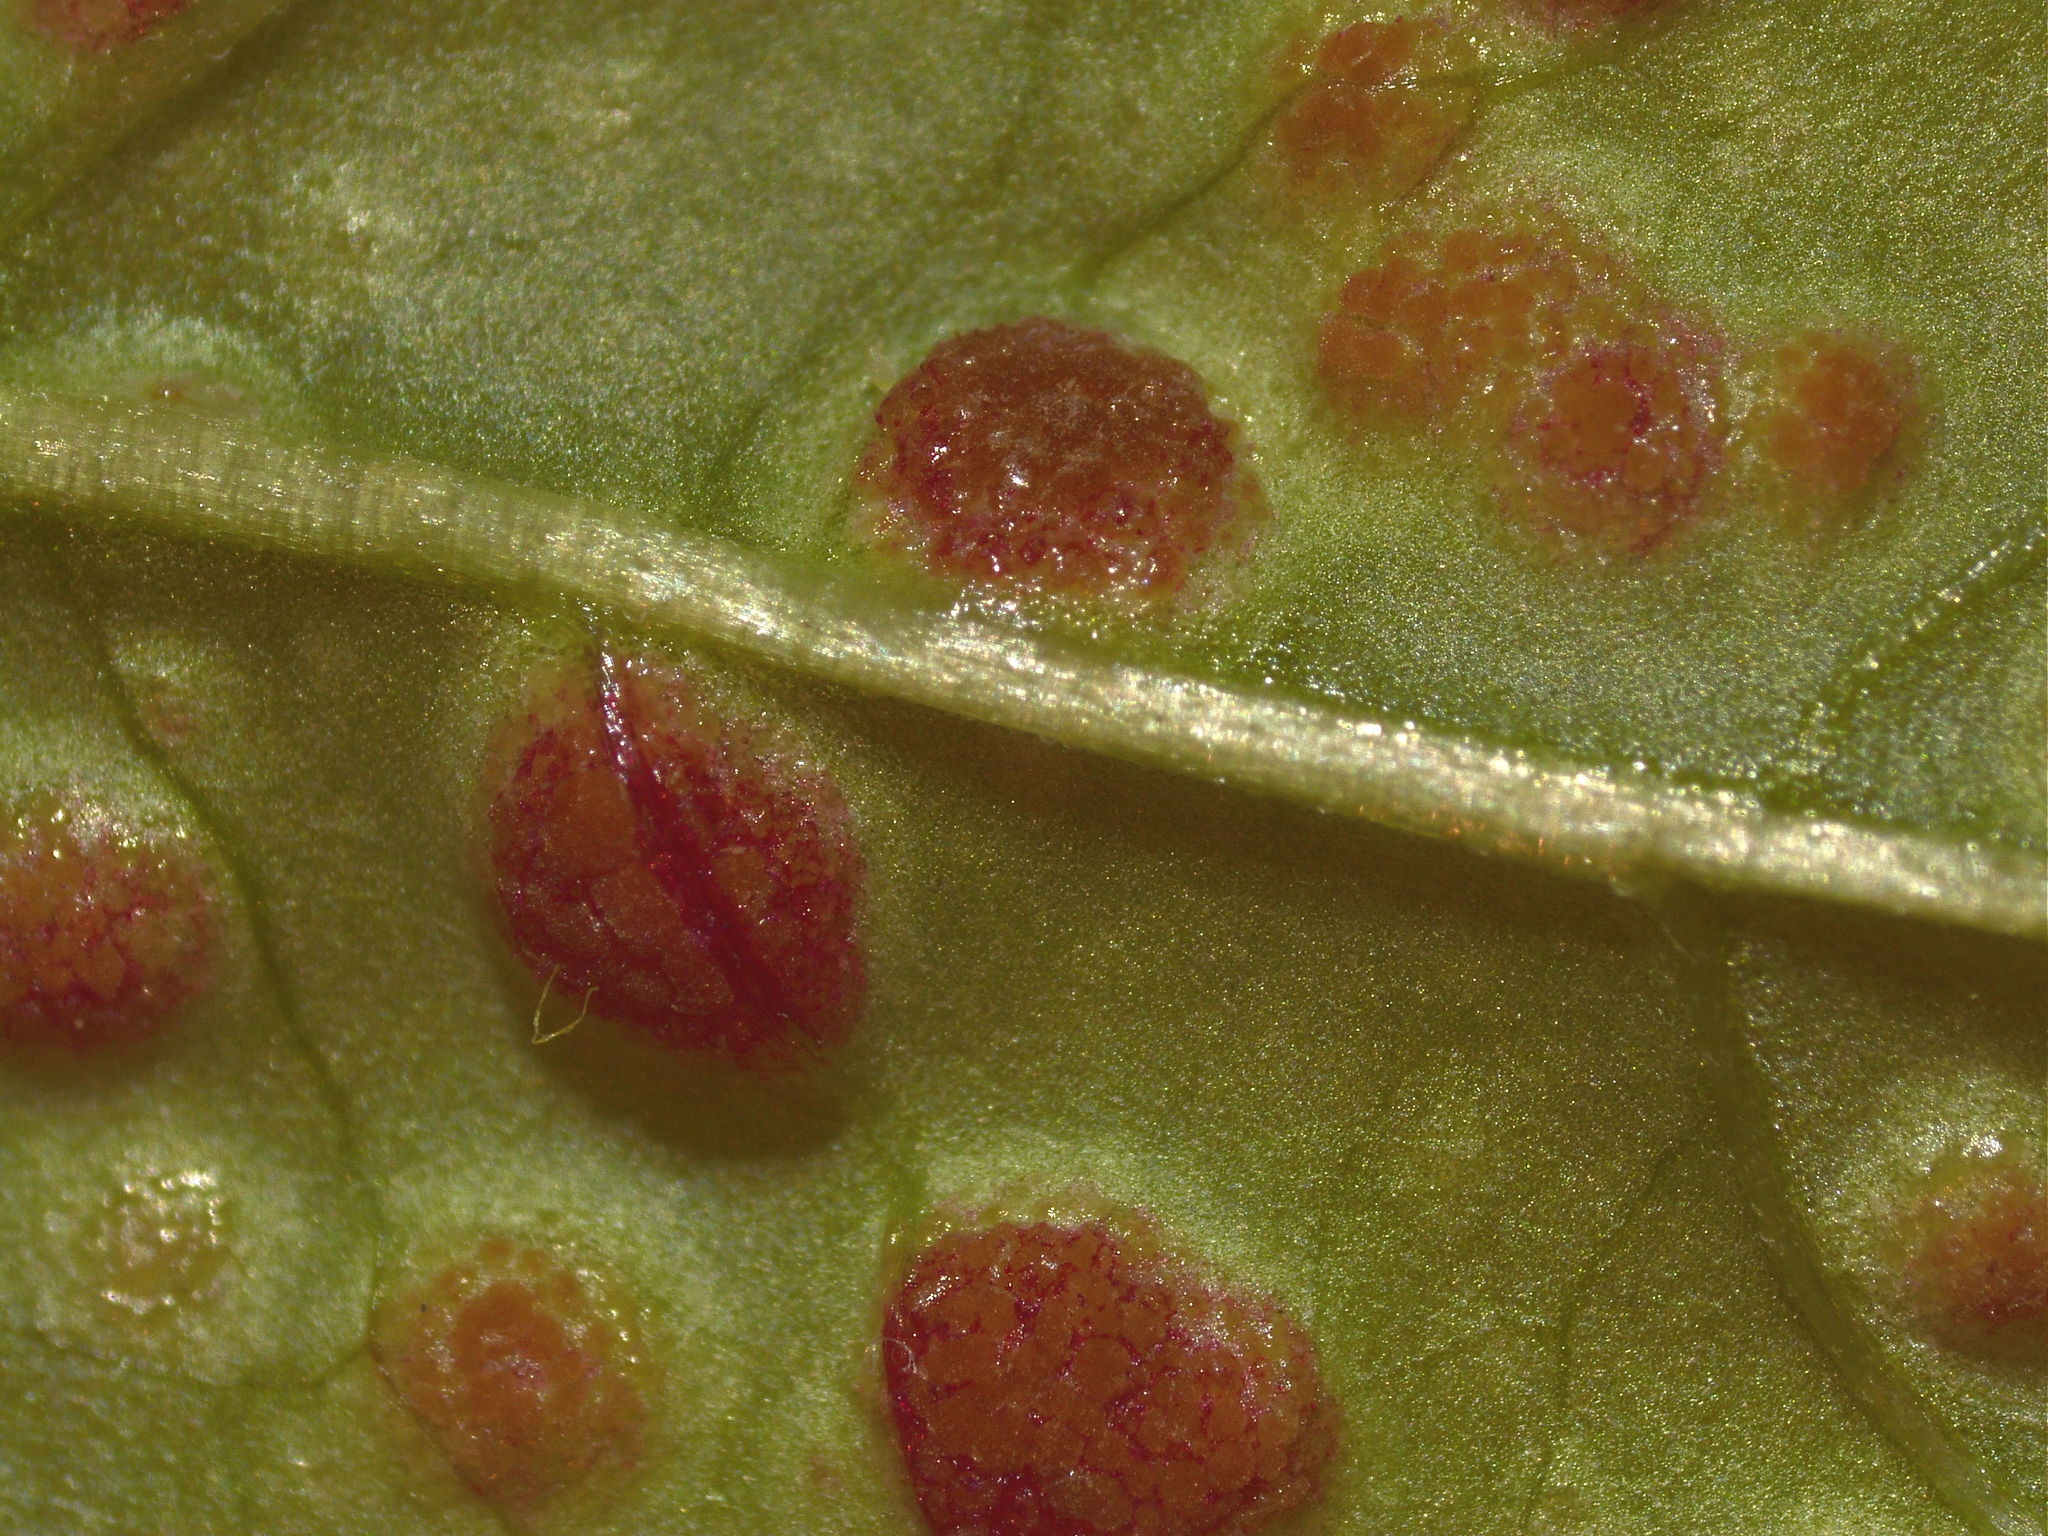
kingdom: Fungi
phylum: Basidiomycota
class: Pucciniomycetes
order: Pucciniales
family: Pucciniaceae
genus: Puccinia
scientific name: Puccinia circaeae
